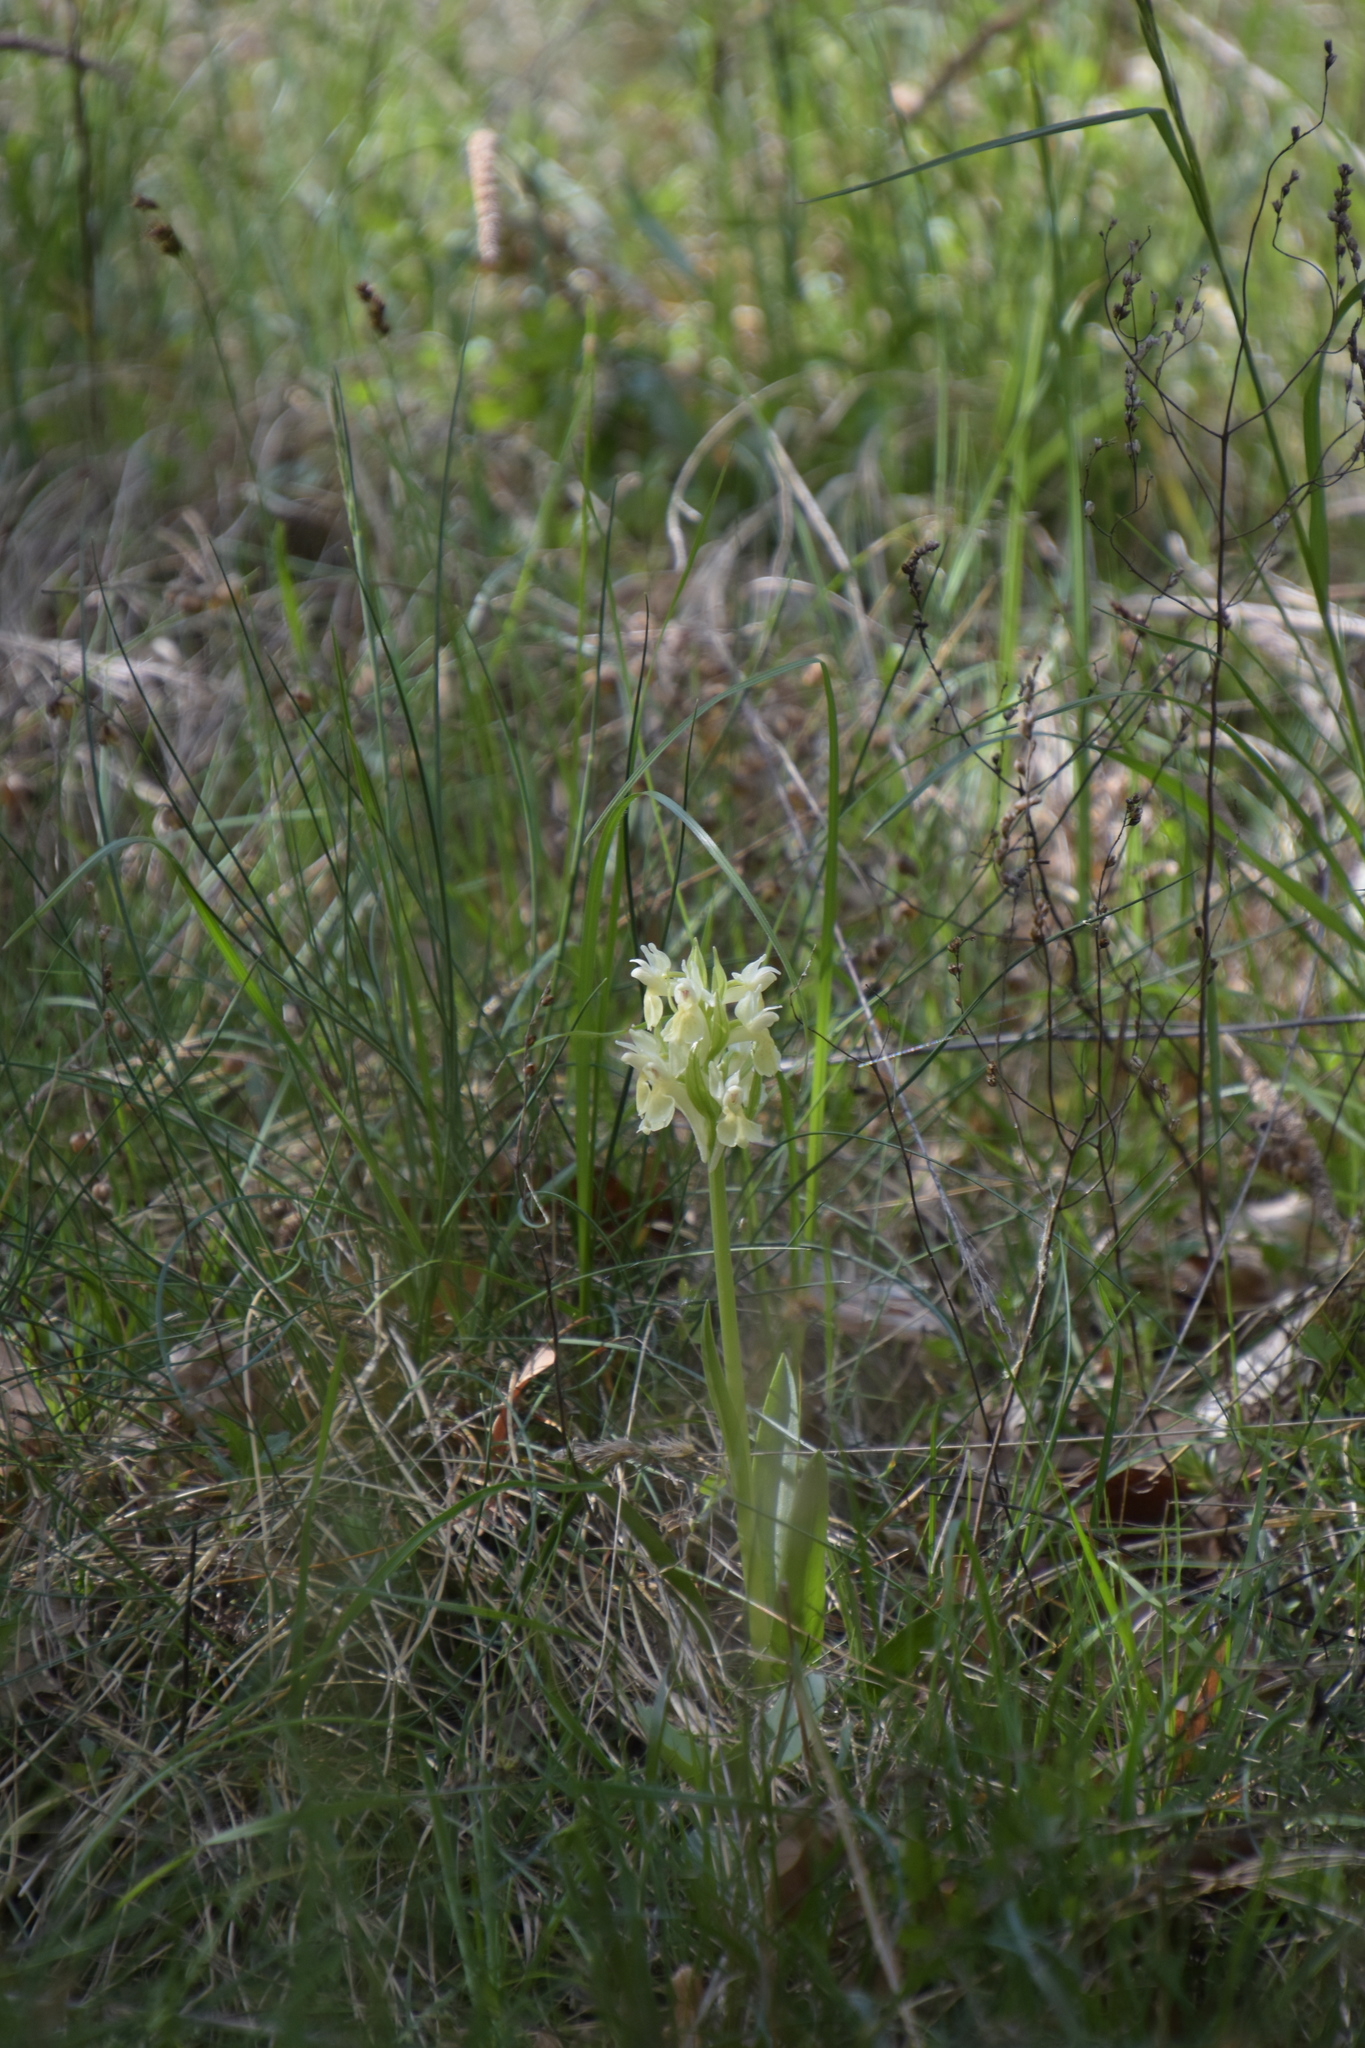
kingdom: Plantae
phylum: Tracheophyta
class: Liliopsida
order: Asparagales
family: Orchidaceae
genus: Dactylorhiza
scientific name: Dactylorhiza sambucina
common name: Elder-flowered orchid
